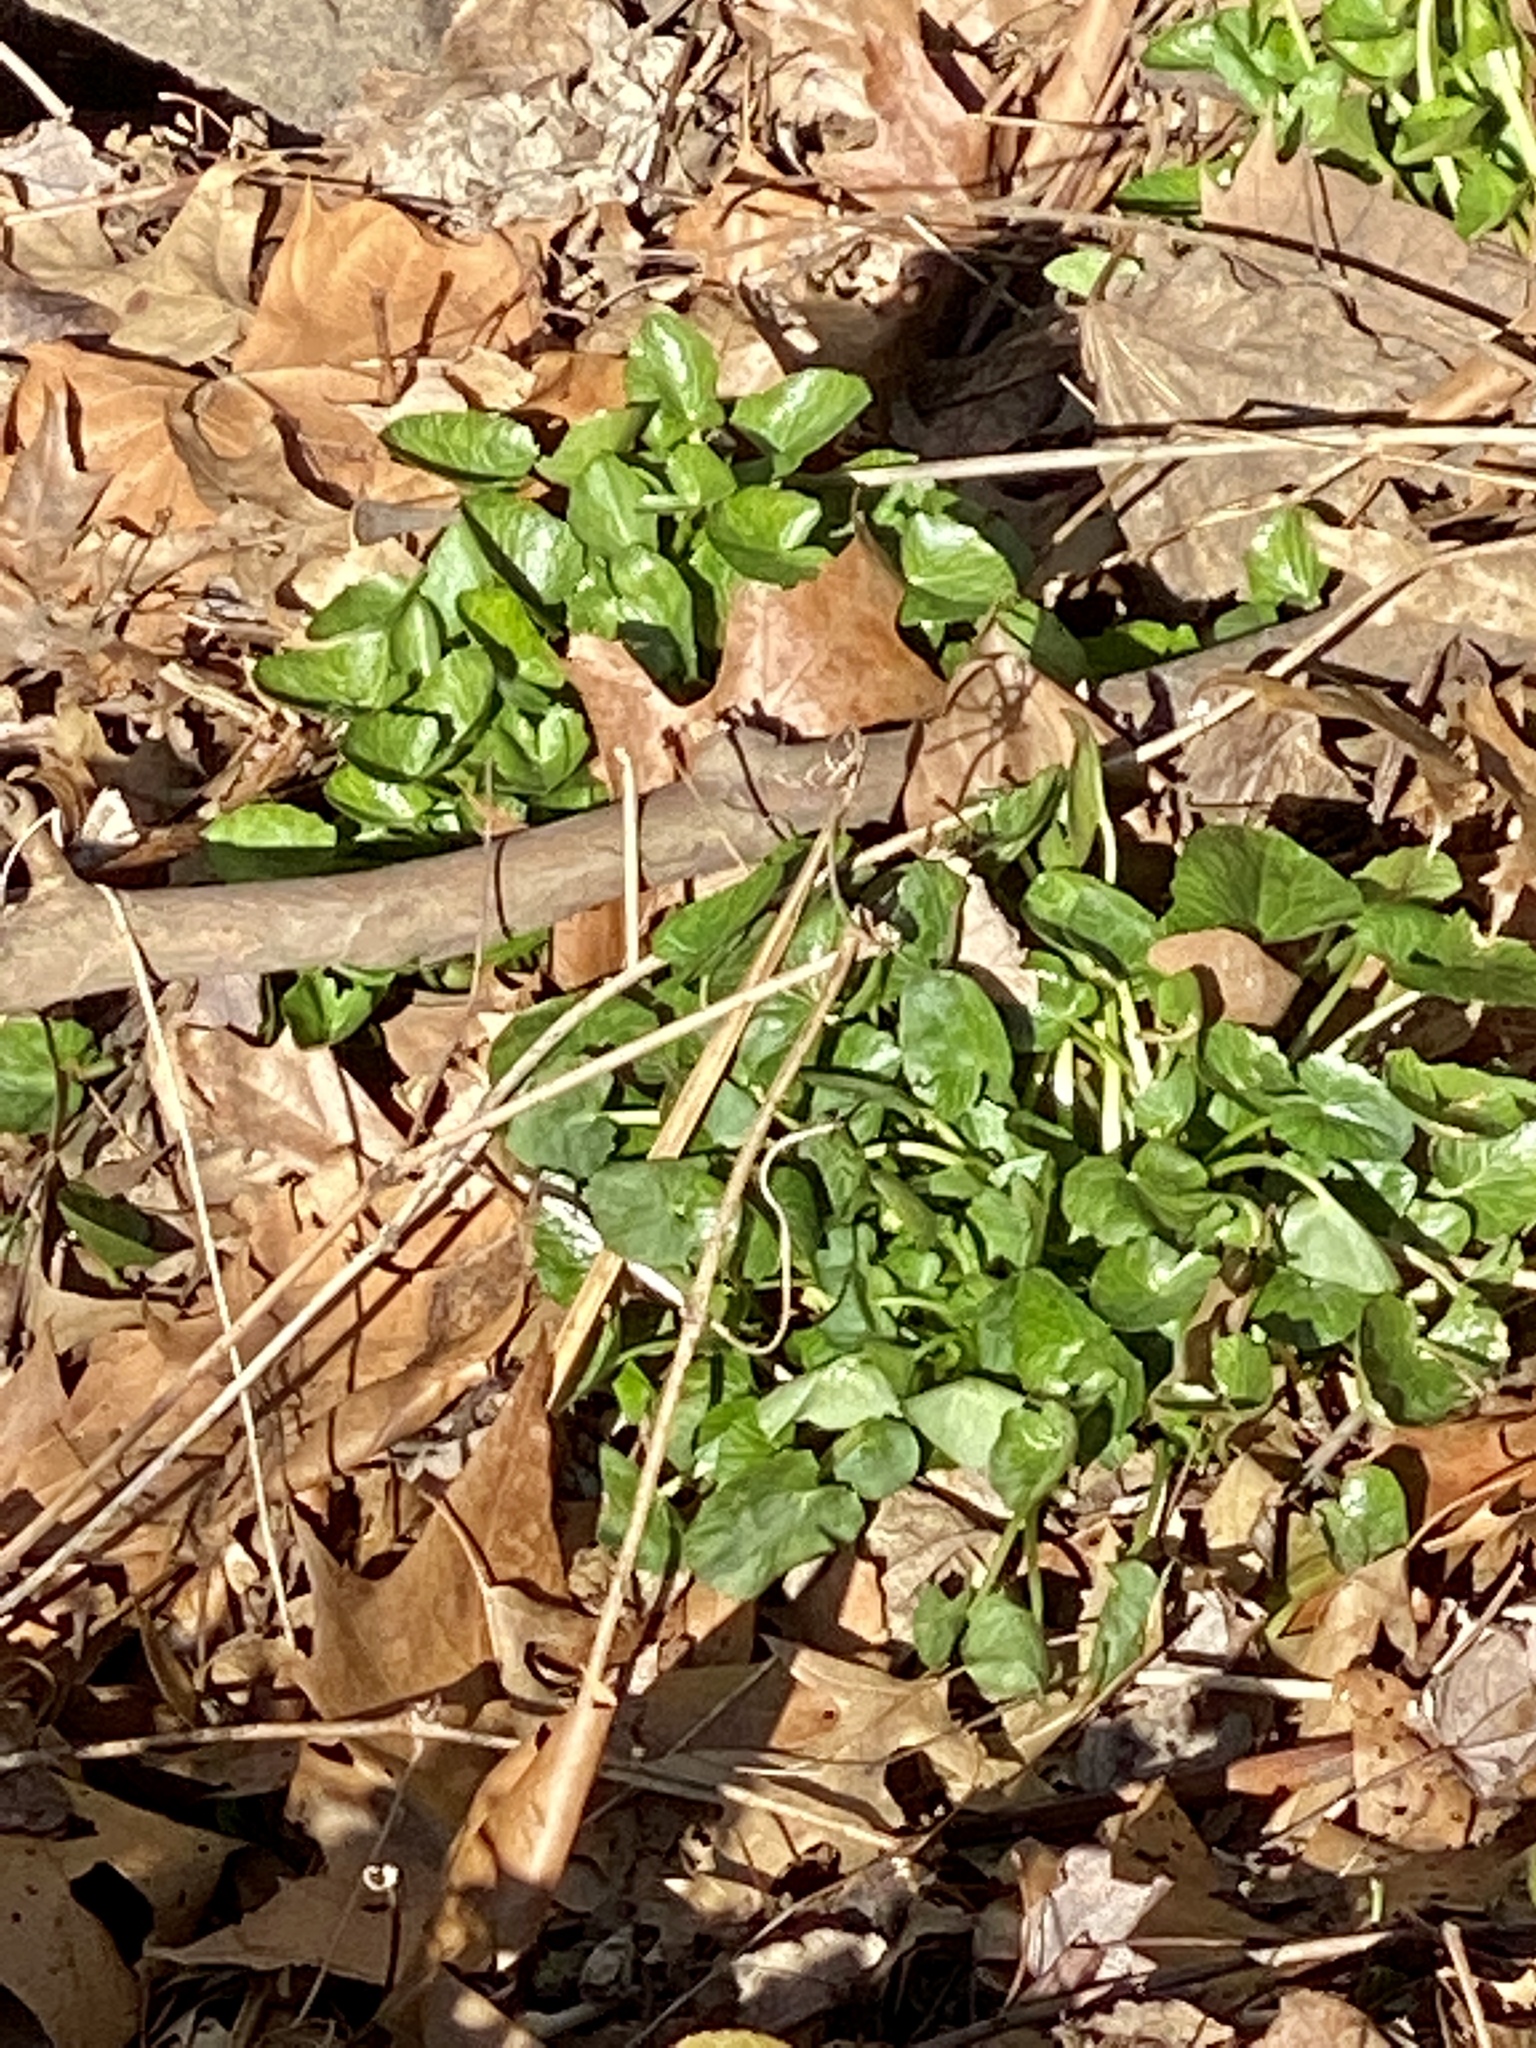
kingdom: Plantae
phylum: Tracheophyta
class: Magnoliopsida
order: Ranunculales
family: Ranunculaceae
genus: Ficaria
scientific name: Ficaria verna
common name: Lesser celandine
